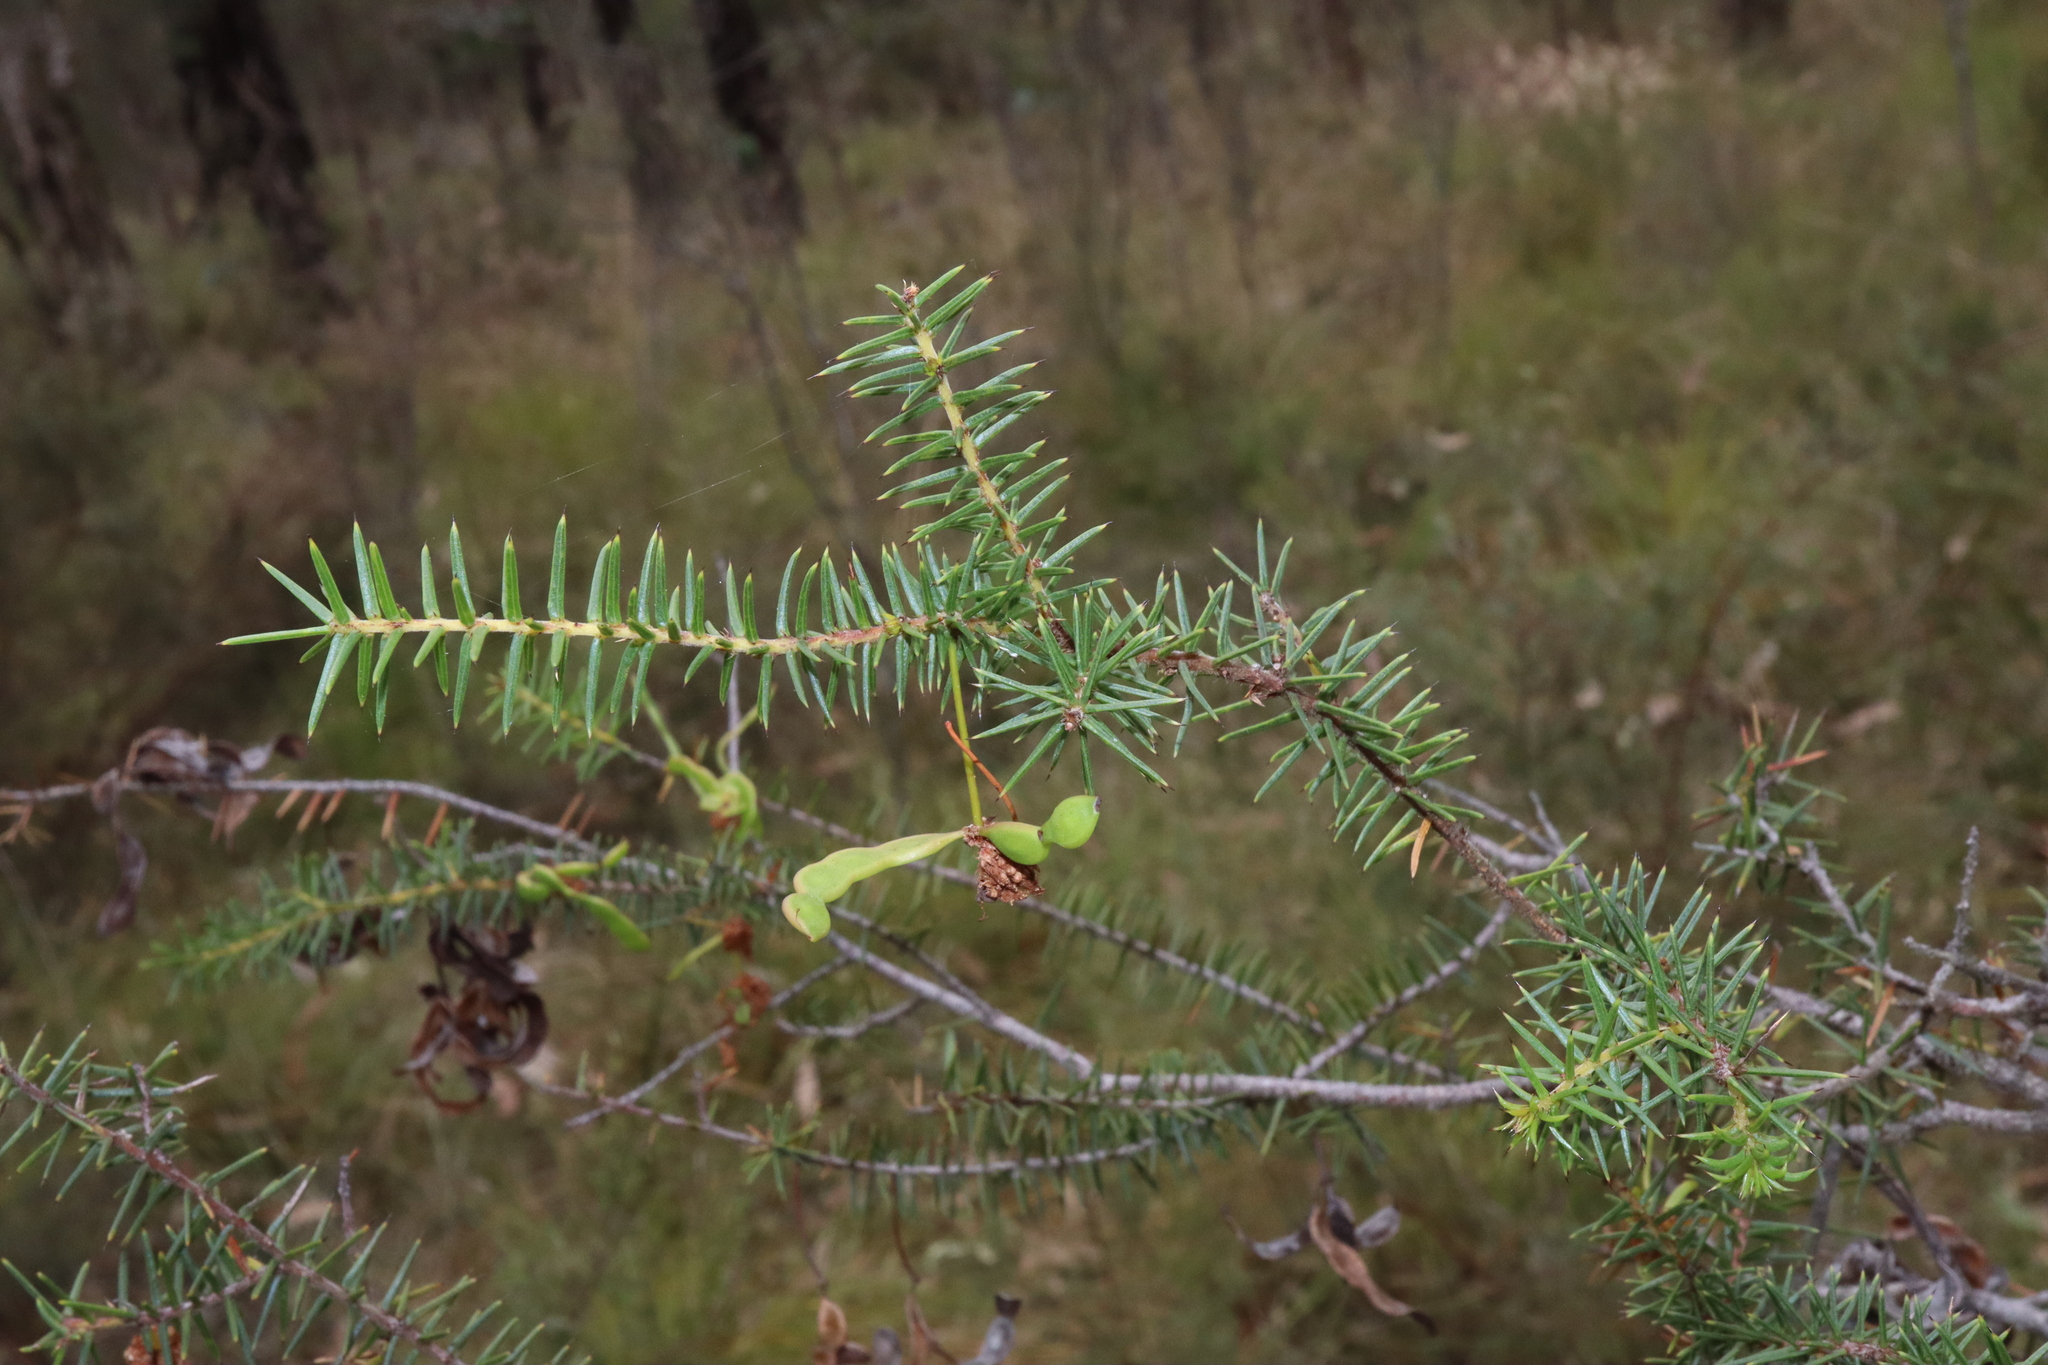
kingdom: Plantae
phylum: Tracheophyta
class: Magnoliopsida
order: Fabales
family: Fabaceae
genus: Acacia
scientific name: Acacia ulicifolia
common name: Juniper wattle
